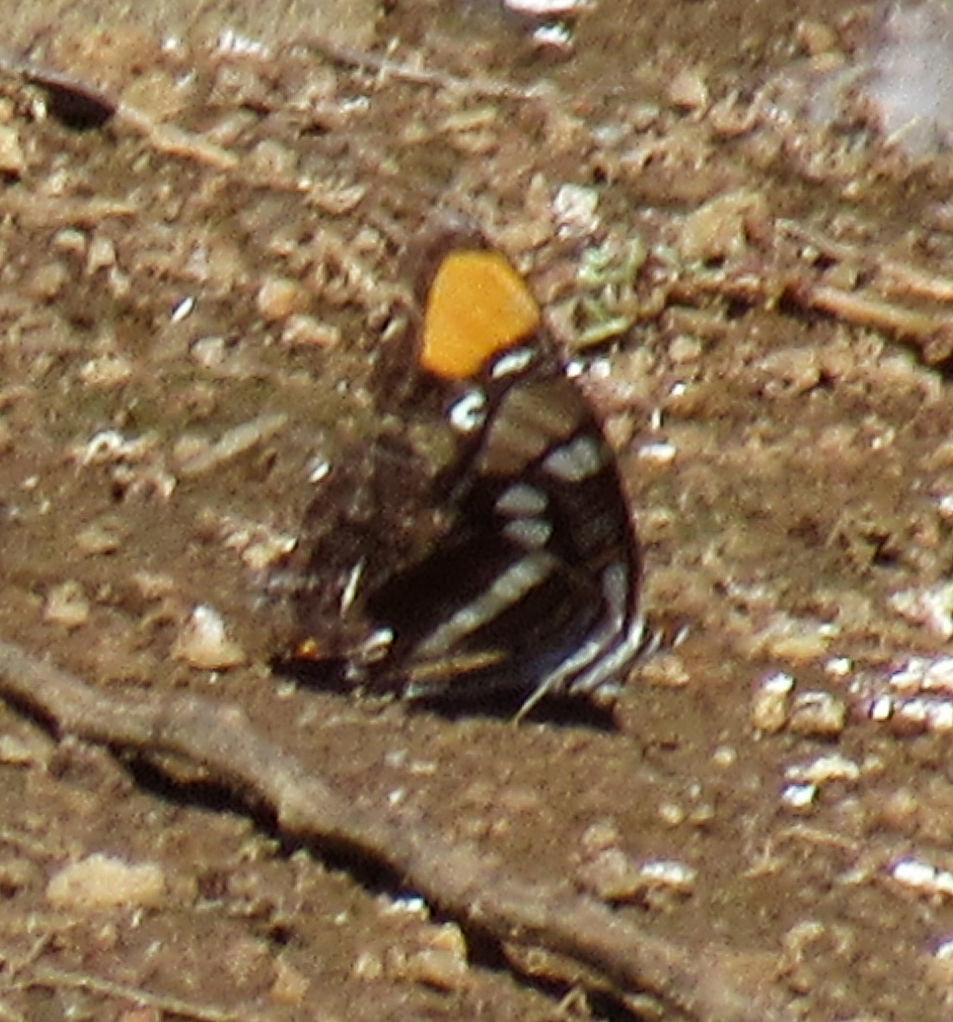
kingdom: Animalia
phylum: Arthropoda
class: Insecta
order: Lepidoptera
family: Nymphalidae
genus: Limenitis
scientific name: Limenitis bredowii
